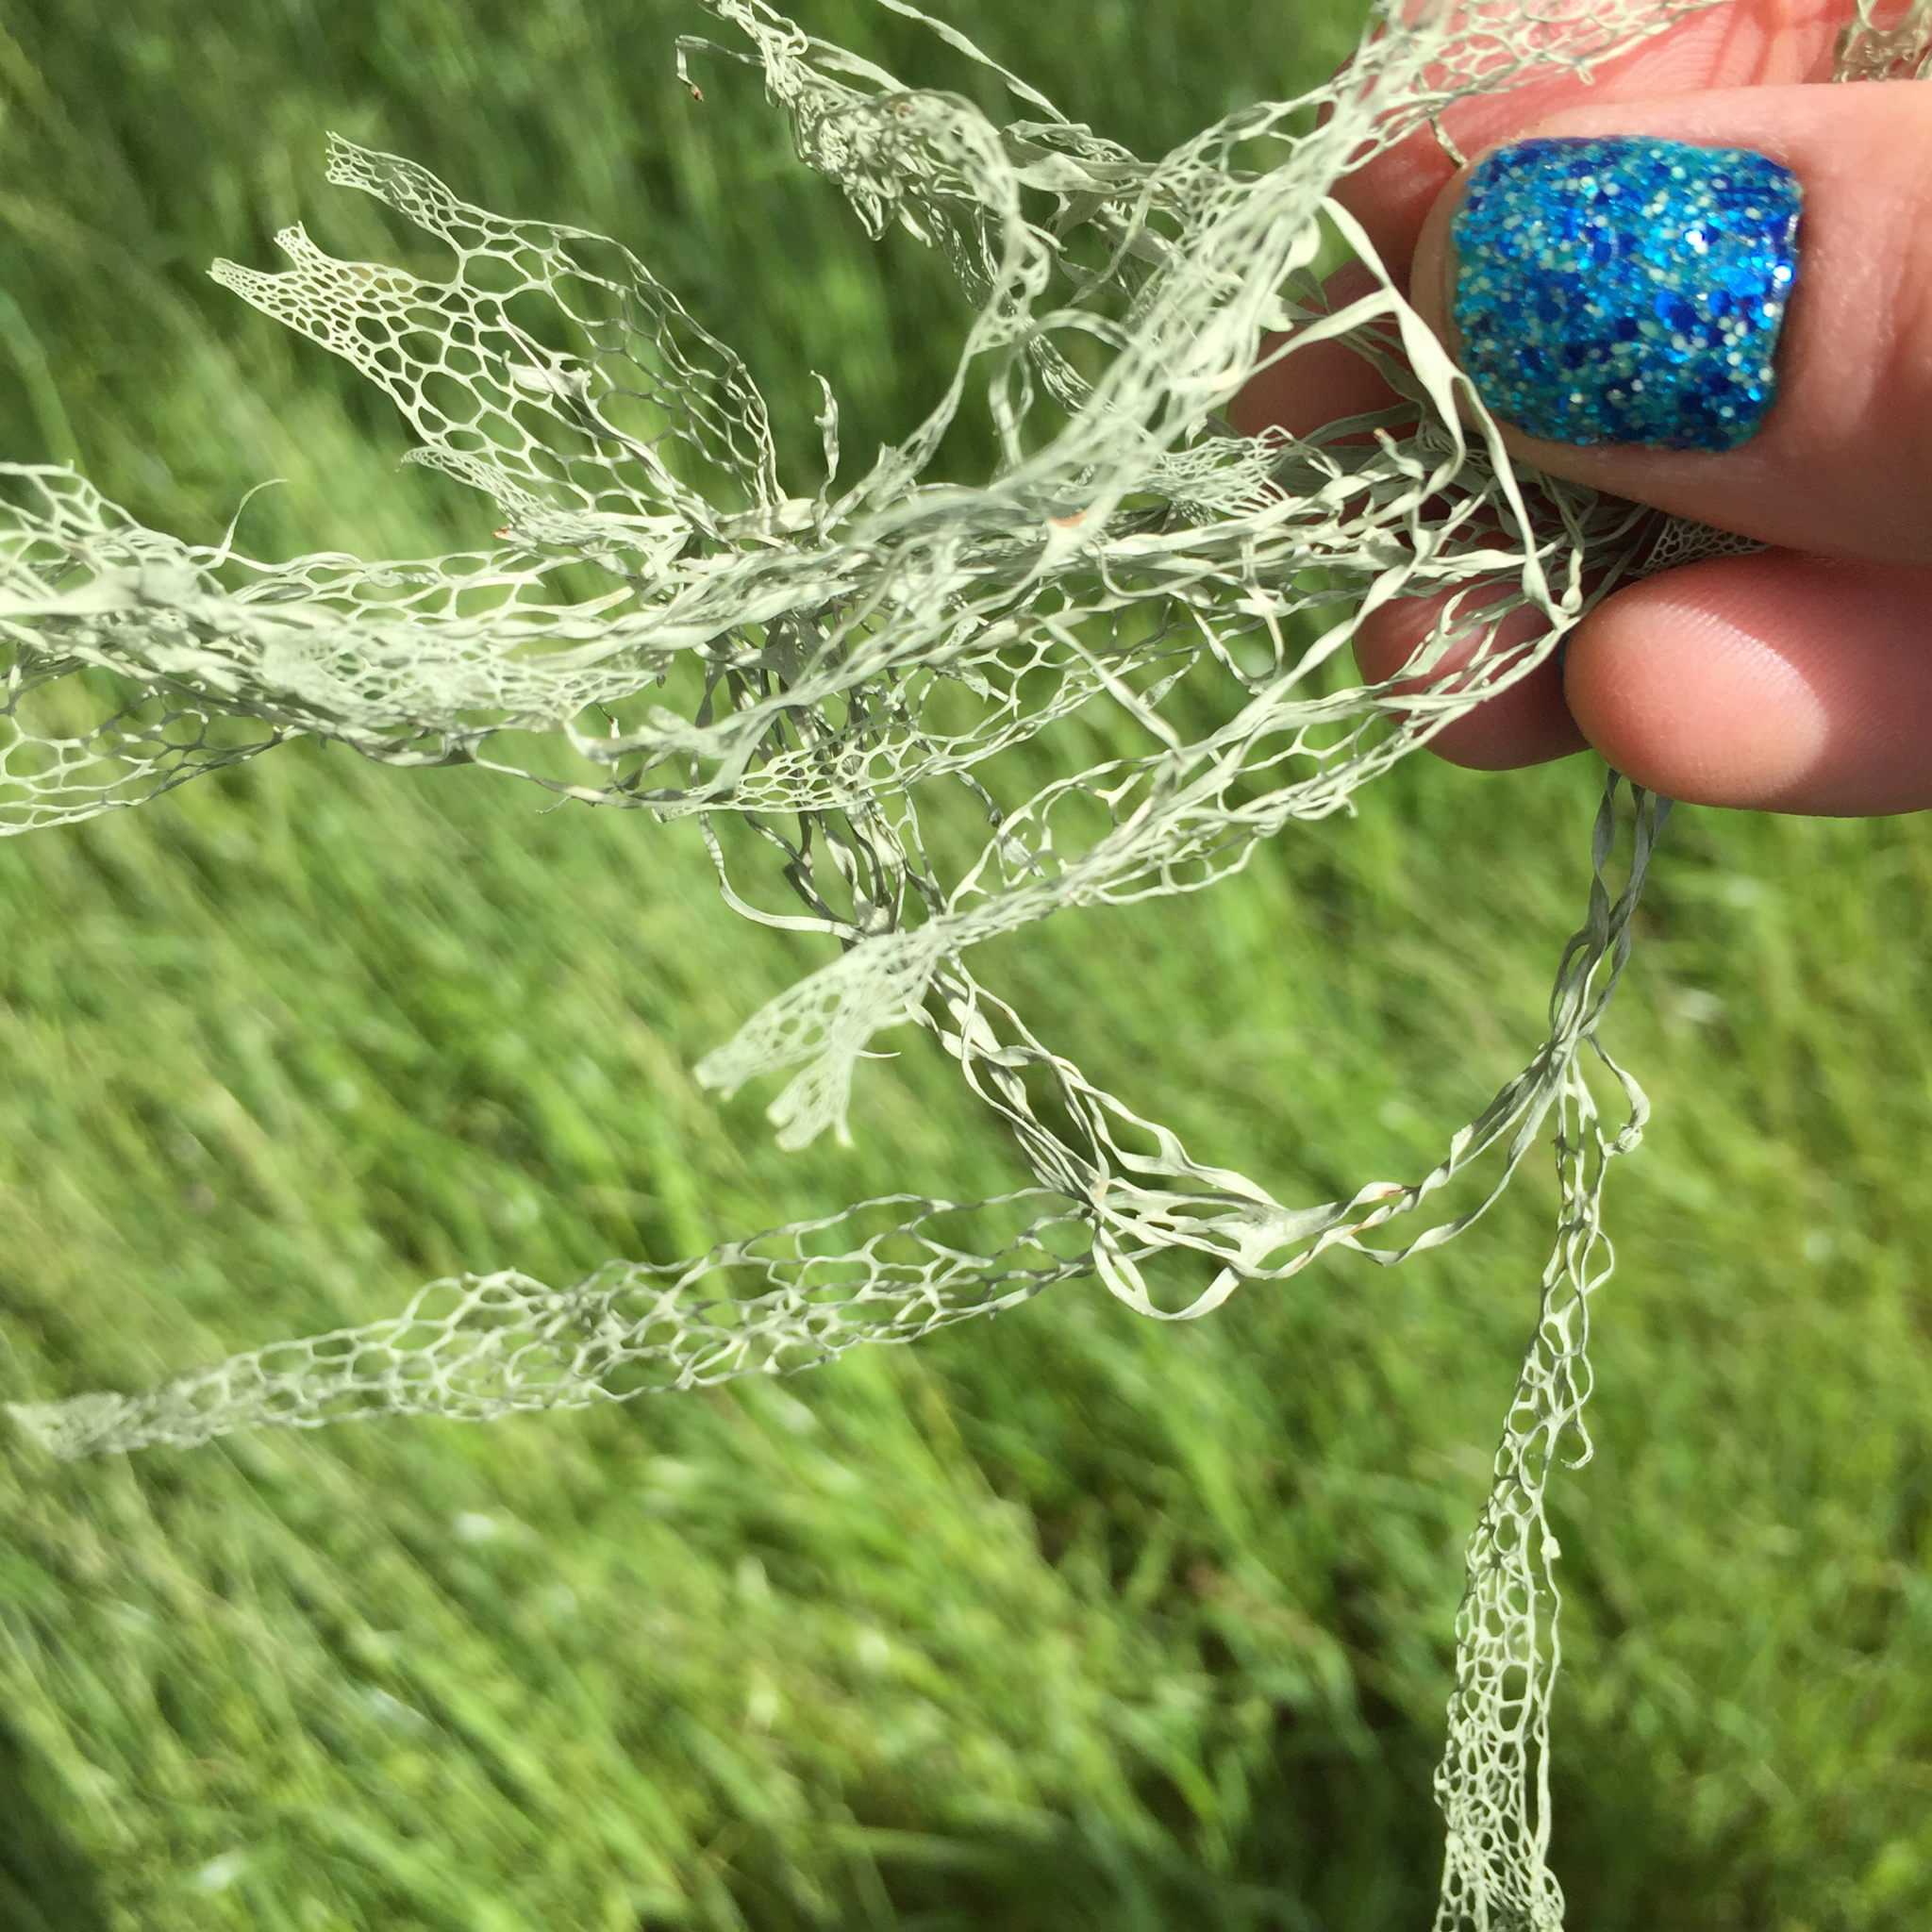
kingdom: Fungi
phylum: Ascomycota
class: Lecanoromycetes
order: Lecanorales
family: Ramalinaceae
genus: Ramalina
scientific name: Ramalina menziesii
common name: Lace lichen
